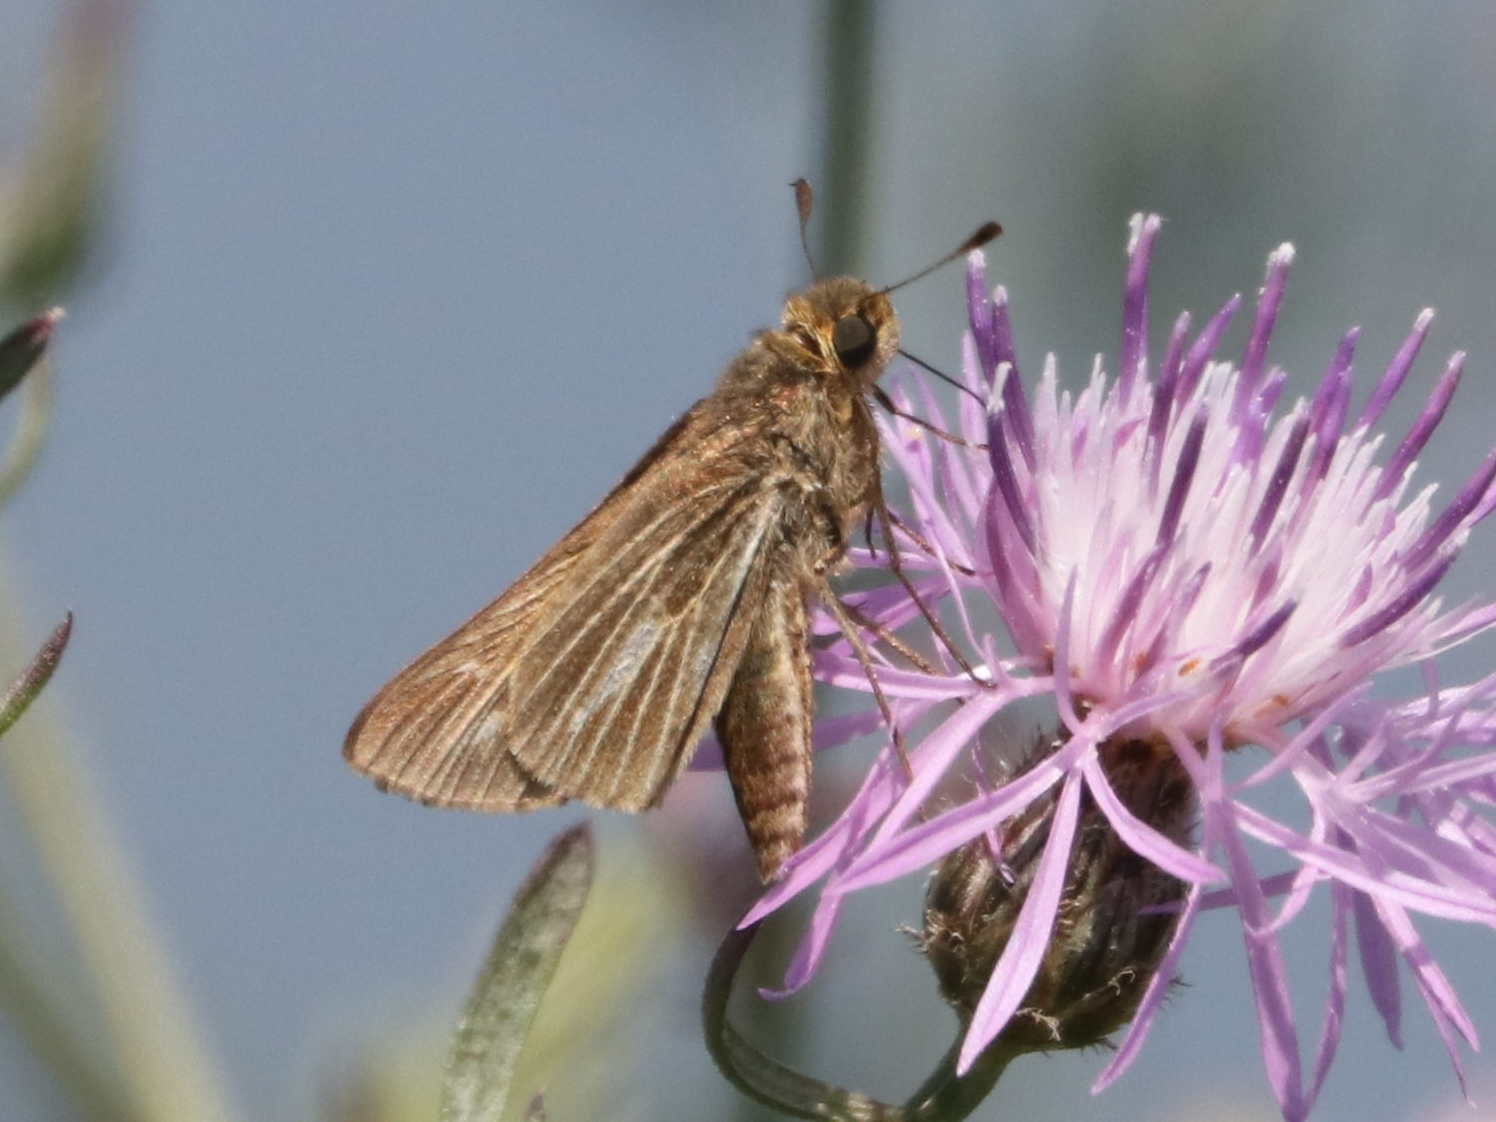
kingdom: Animalia
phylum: Arthropoda
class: Insecta
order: Lepidoptera
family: Hesperiidae
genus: Panoquina
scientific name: Panoquina panoquin
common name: Salt marsh skipper
